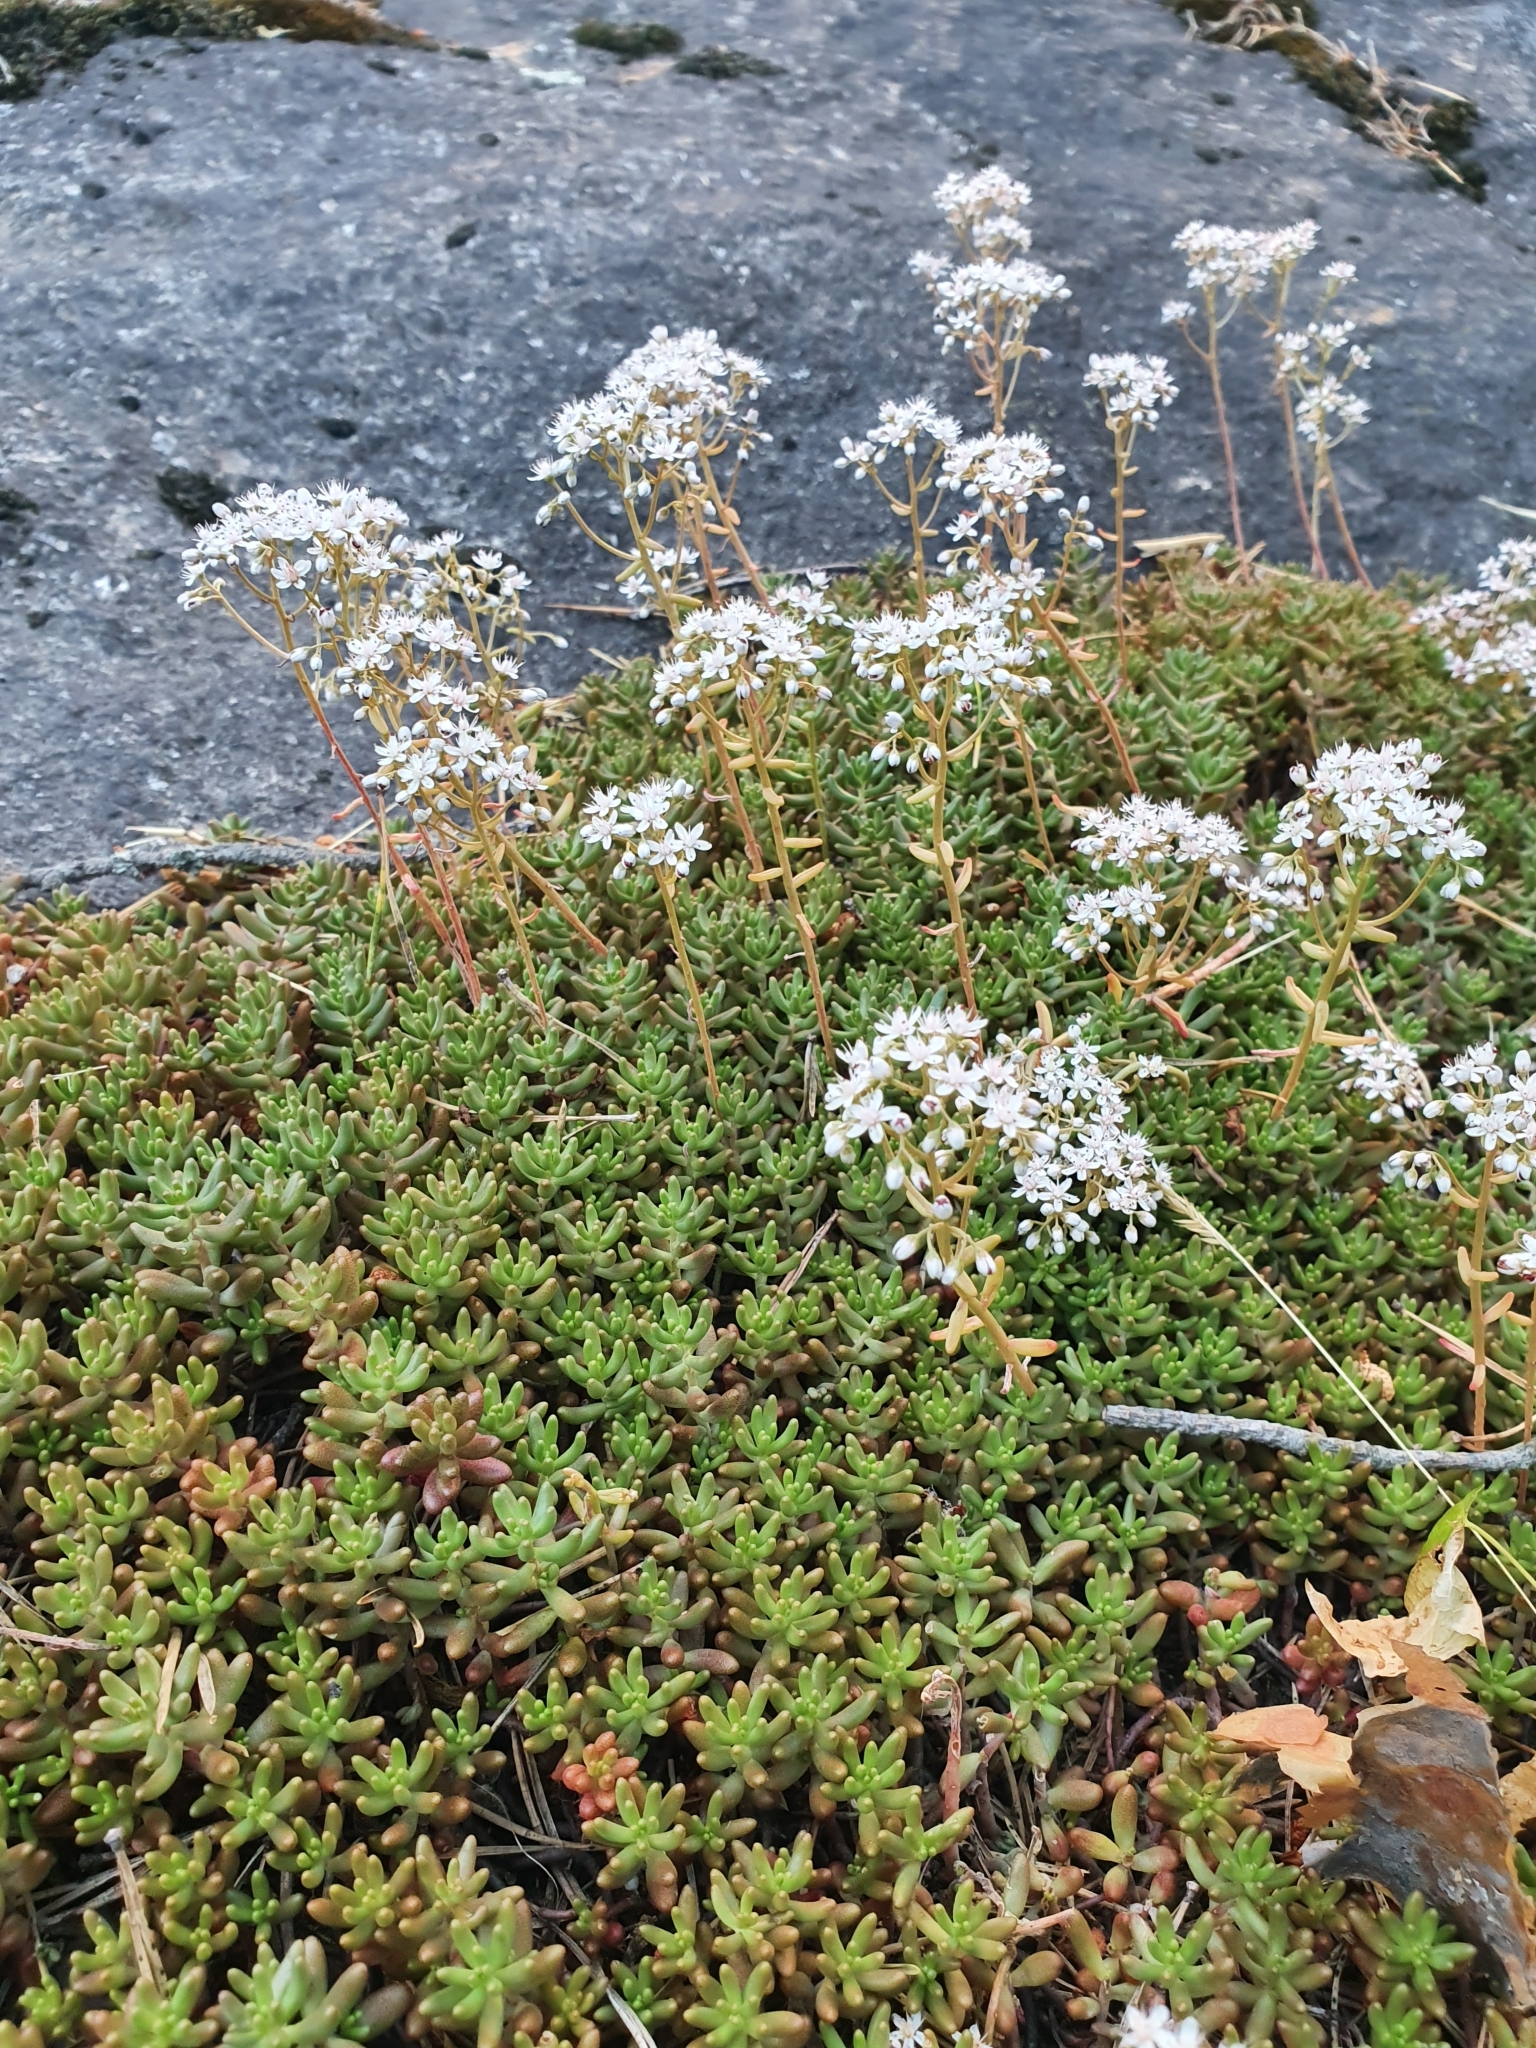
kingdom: Plantae
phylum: Tracheophyta
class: Magnoliopsida
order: Saxifragales
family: Crassulaceae
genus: Sedum
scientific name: Sedum album
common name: White stonecrop
